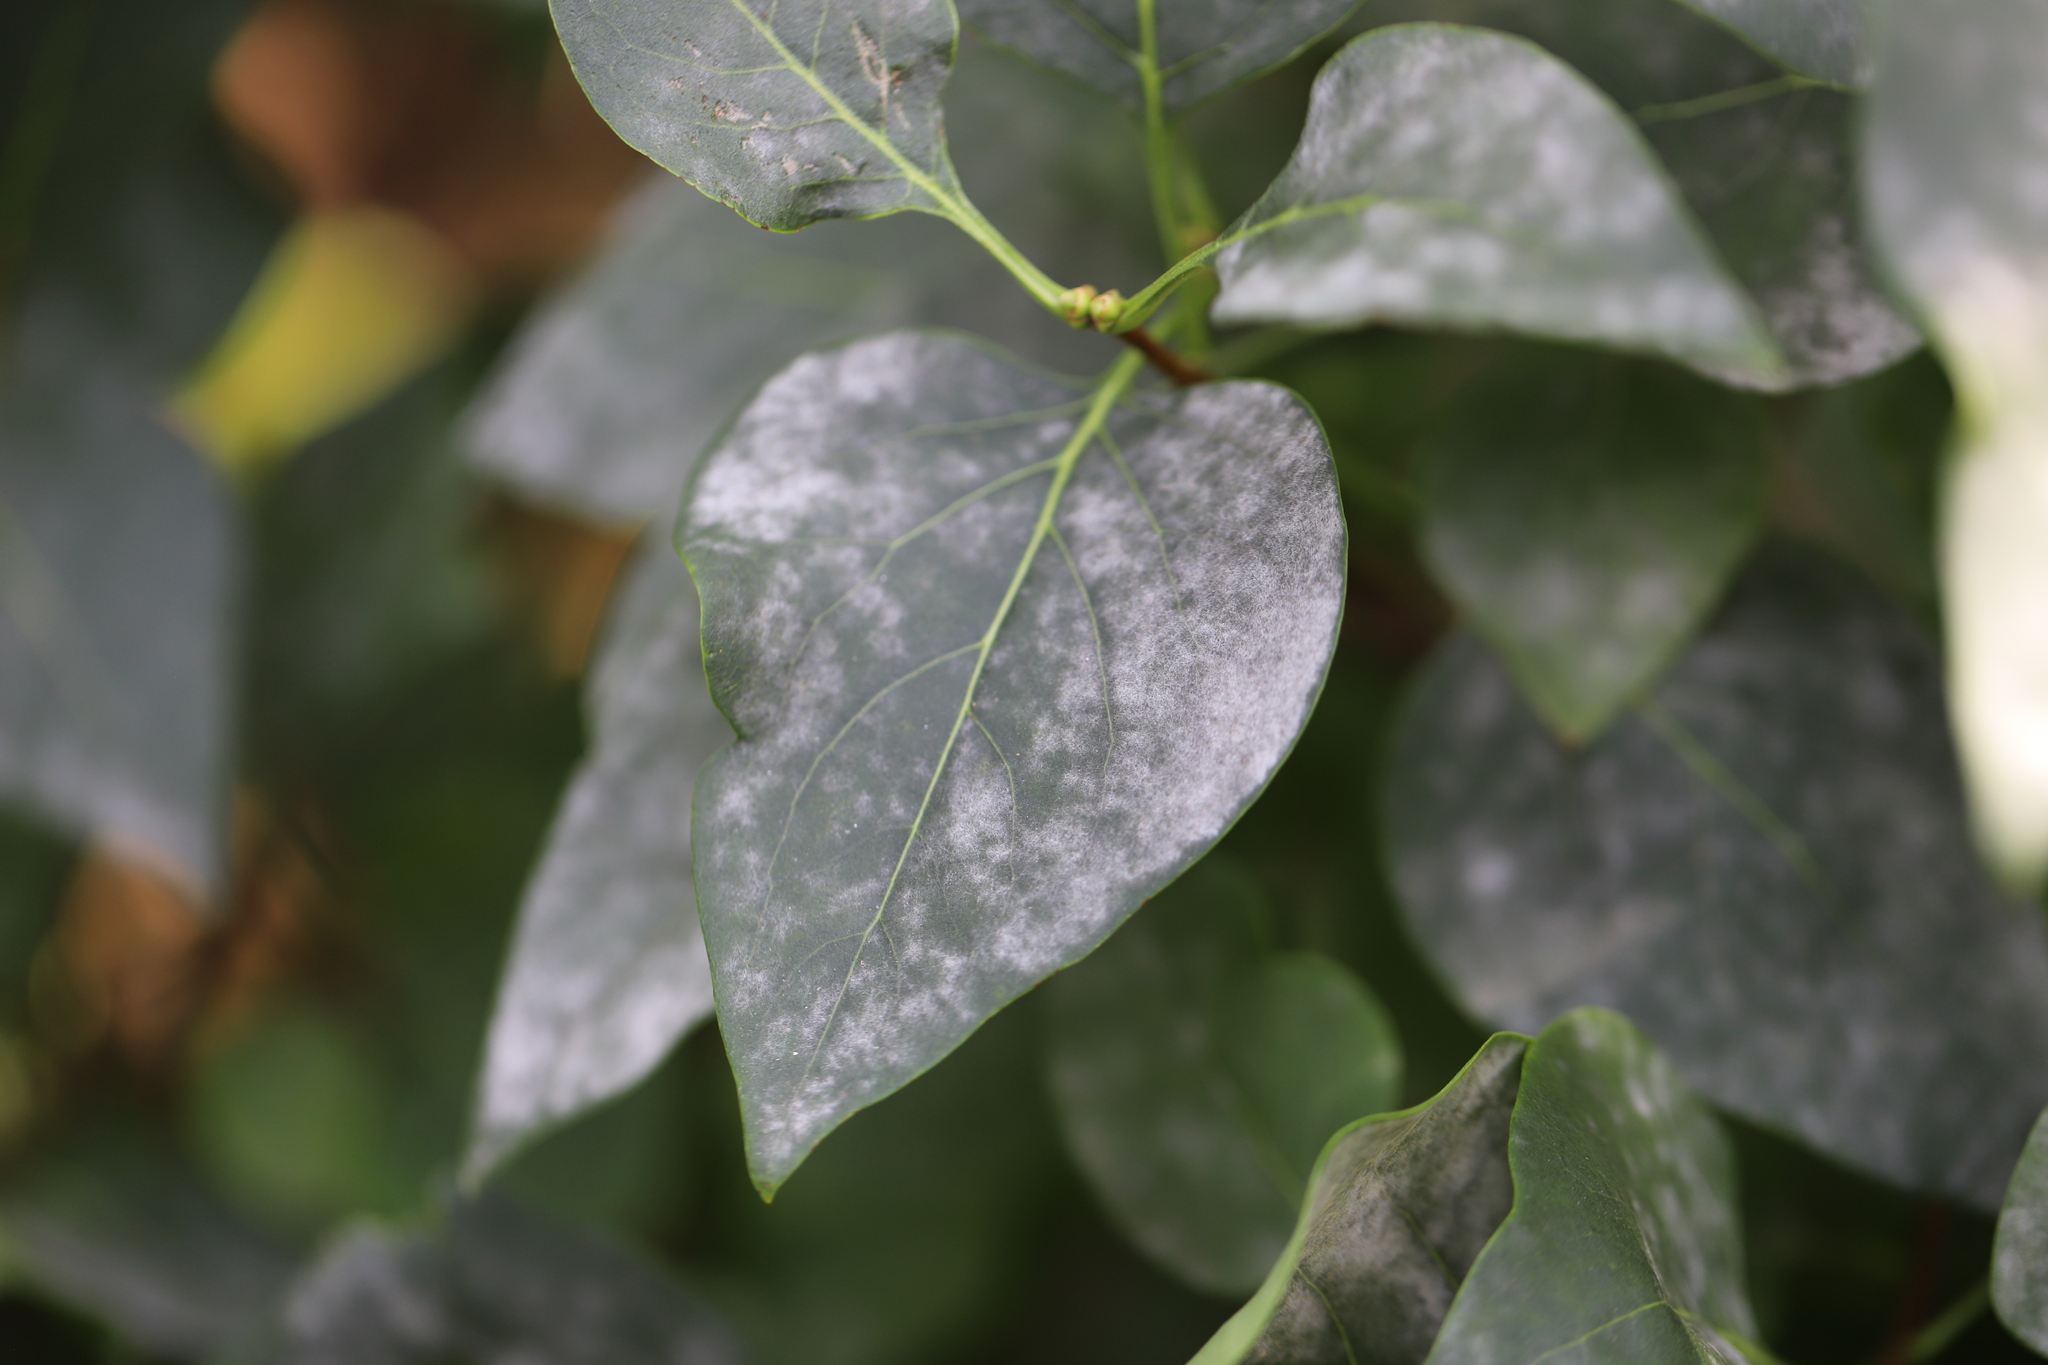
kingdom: Fungi
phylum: Ascomycota
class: Leotiomycetes
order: Helotiales
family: Erysiphaceae
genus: Erysiphe
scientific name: Erysiphe syringae
